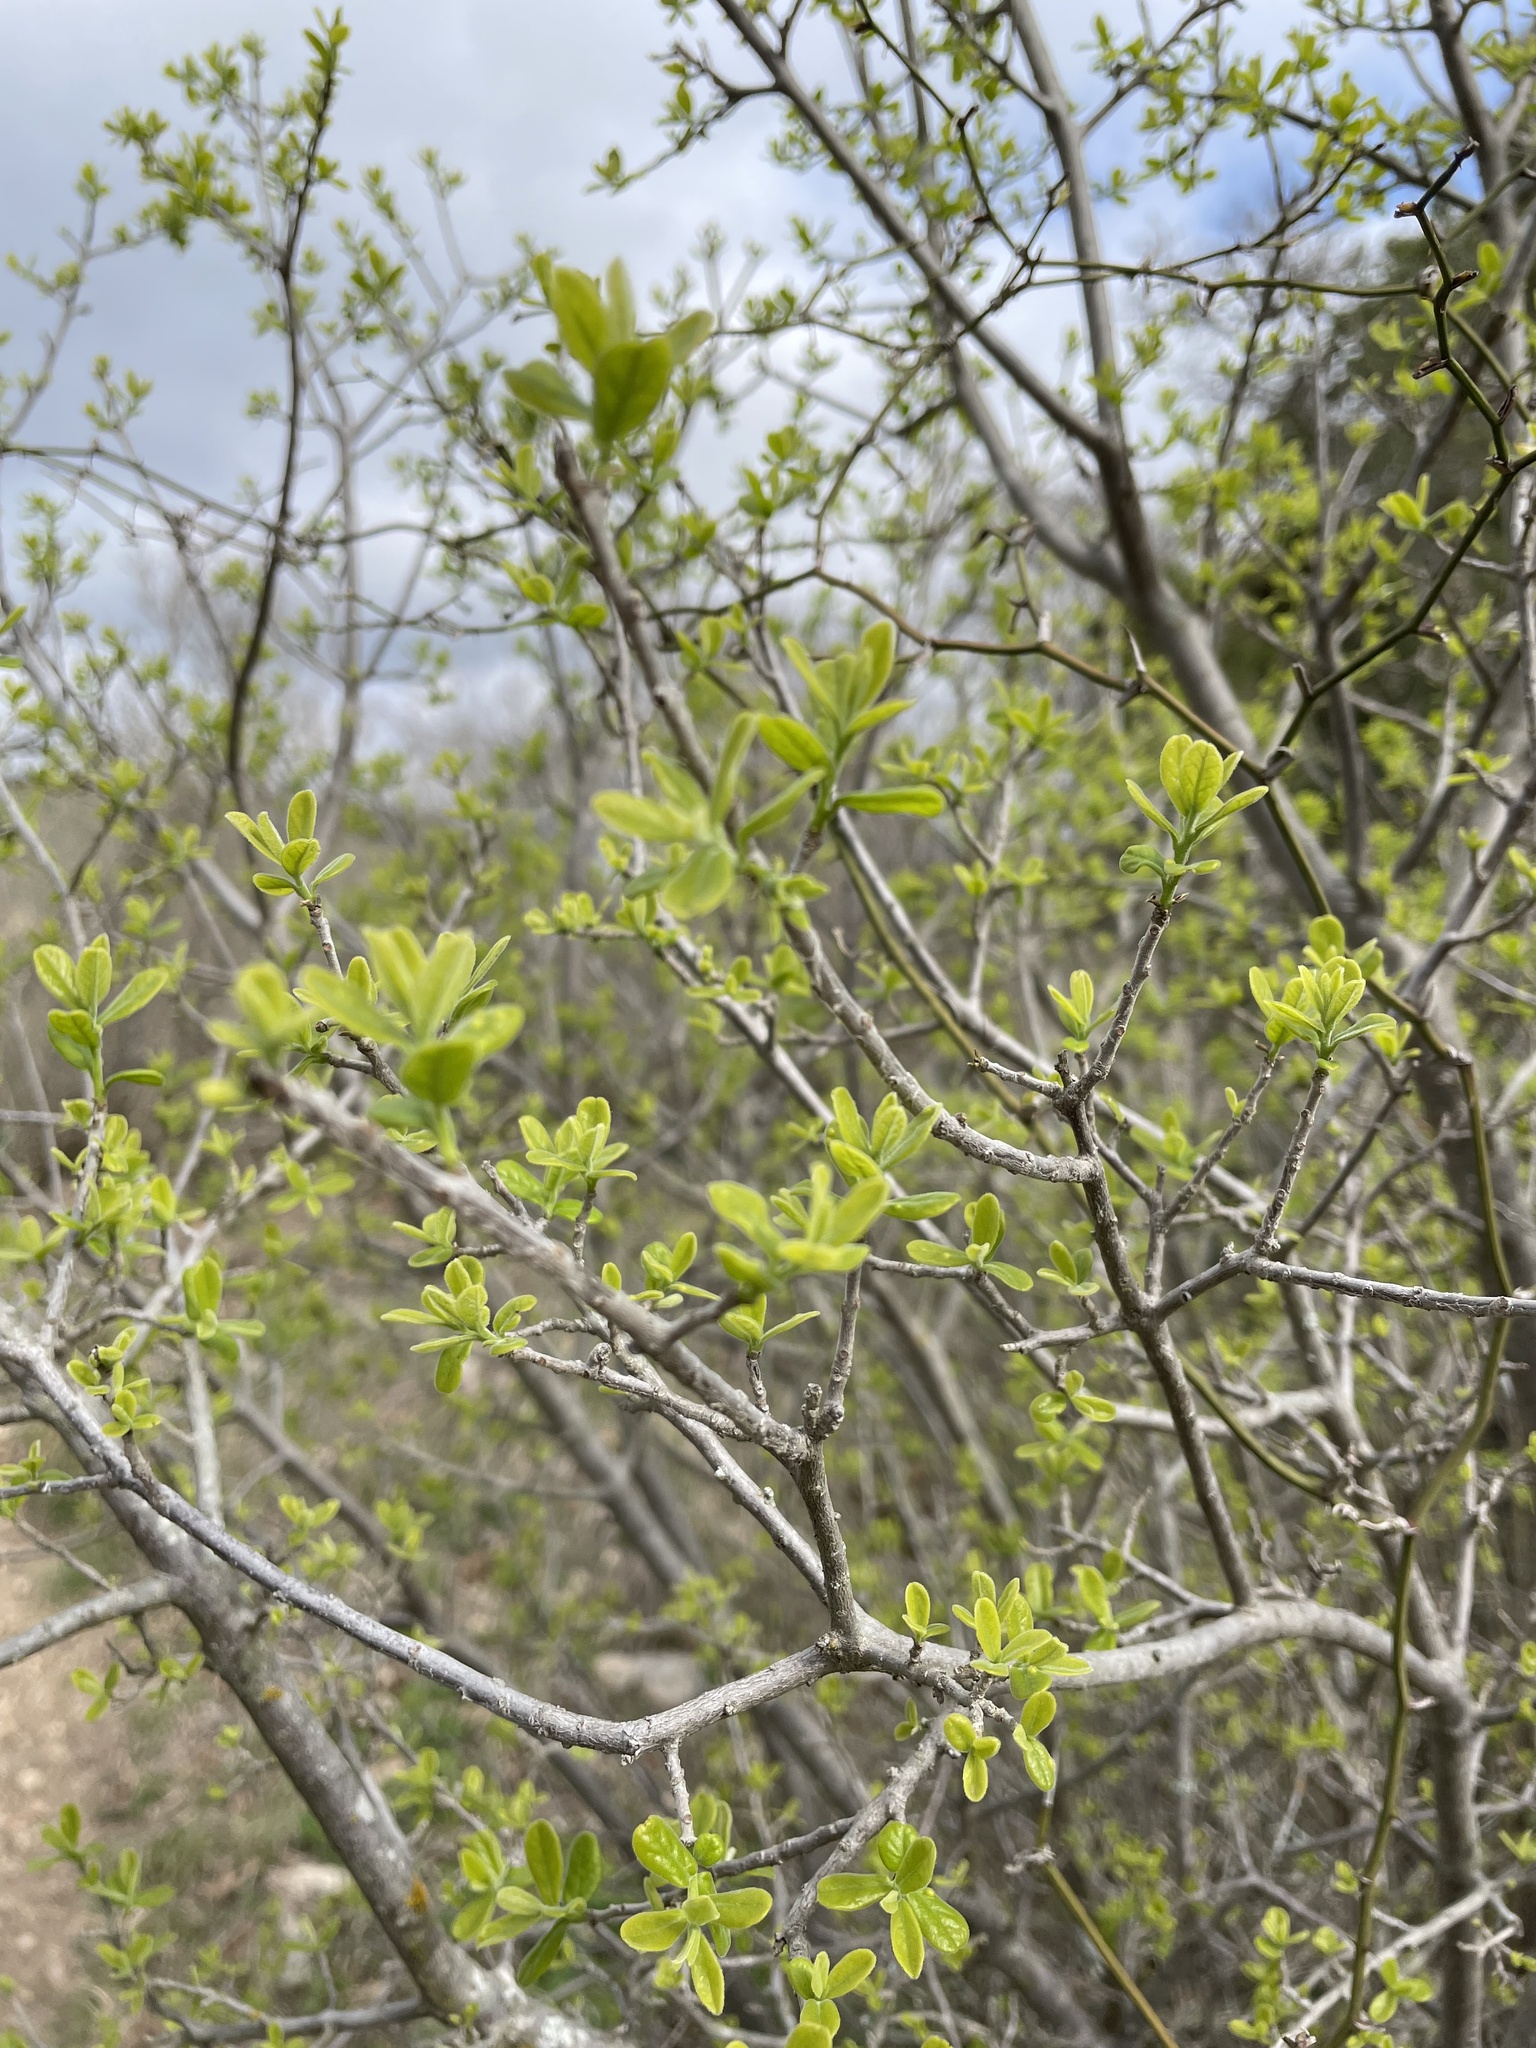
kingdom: Plantae
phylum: Tracheophyta
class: Magnoliopsida
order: Ericales
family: Ebenaceae
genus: Diospyros
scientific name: Diospyros texana
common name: Texas persimmon
